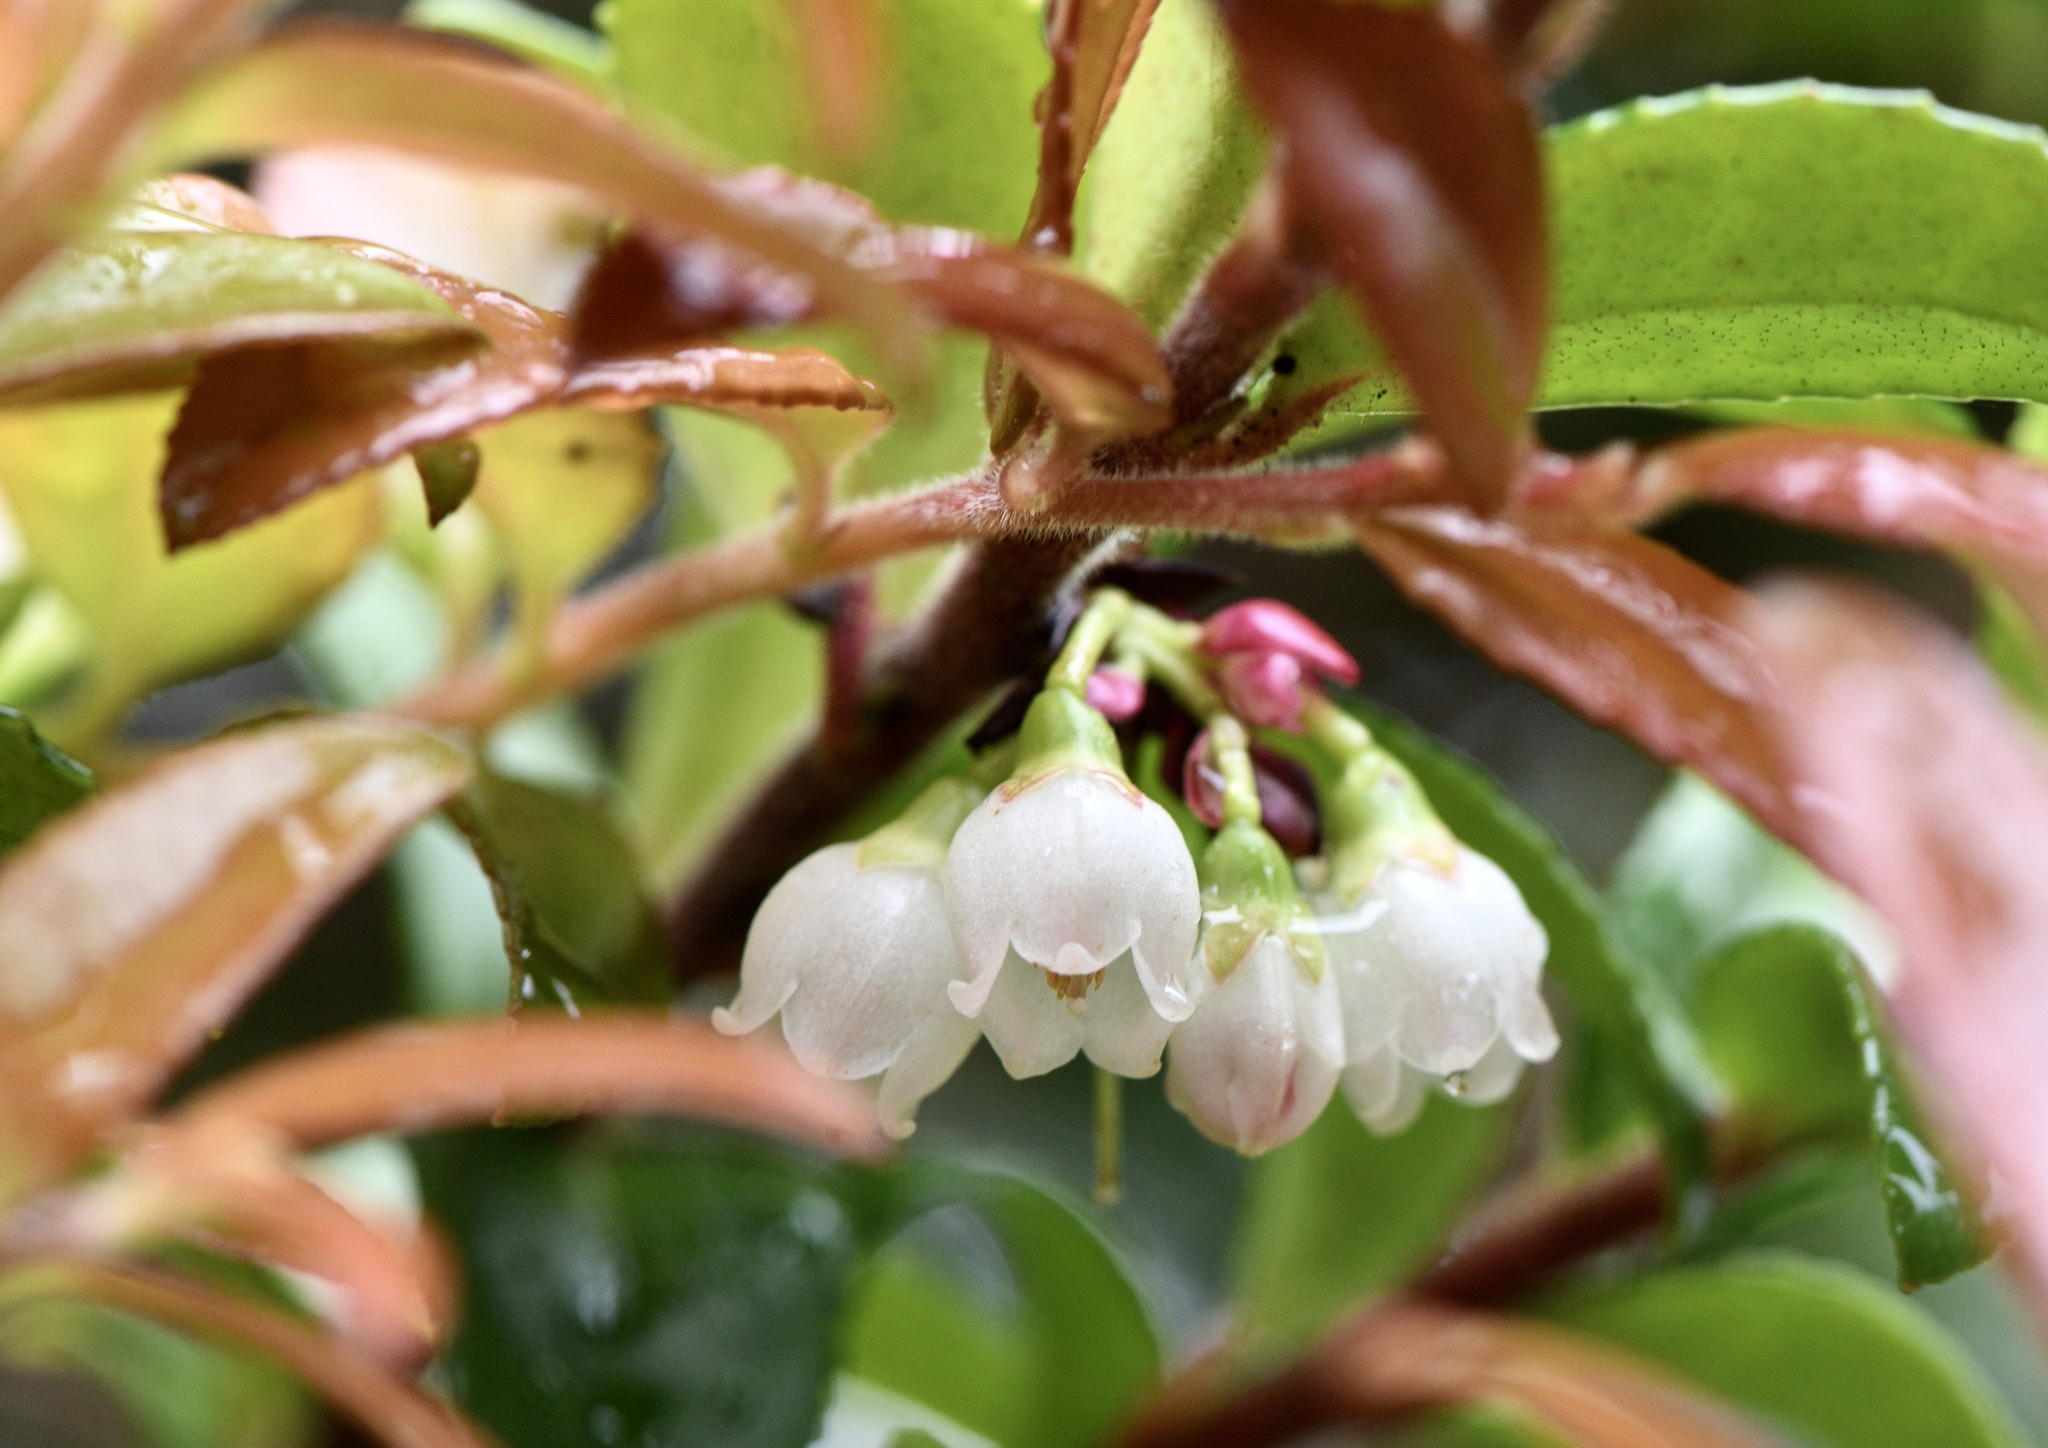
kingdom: Plantae
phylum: Tracheophyta
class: Magnoliopsida
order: Ericales
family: Ericaceae
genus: Vaccinium
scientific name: Vaccinium ovatum
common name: California-huckleberry
